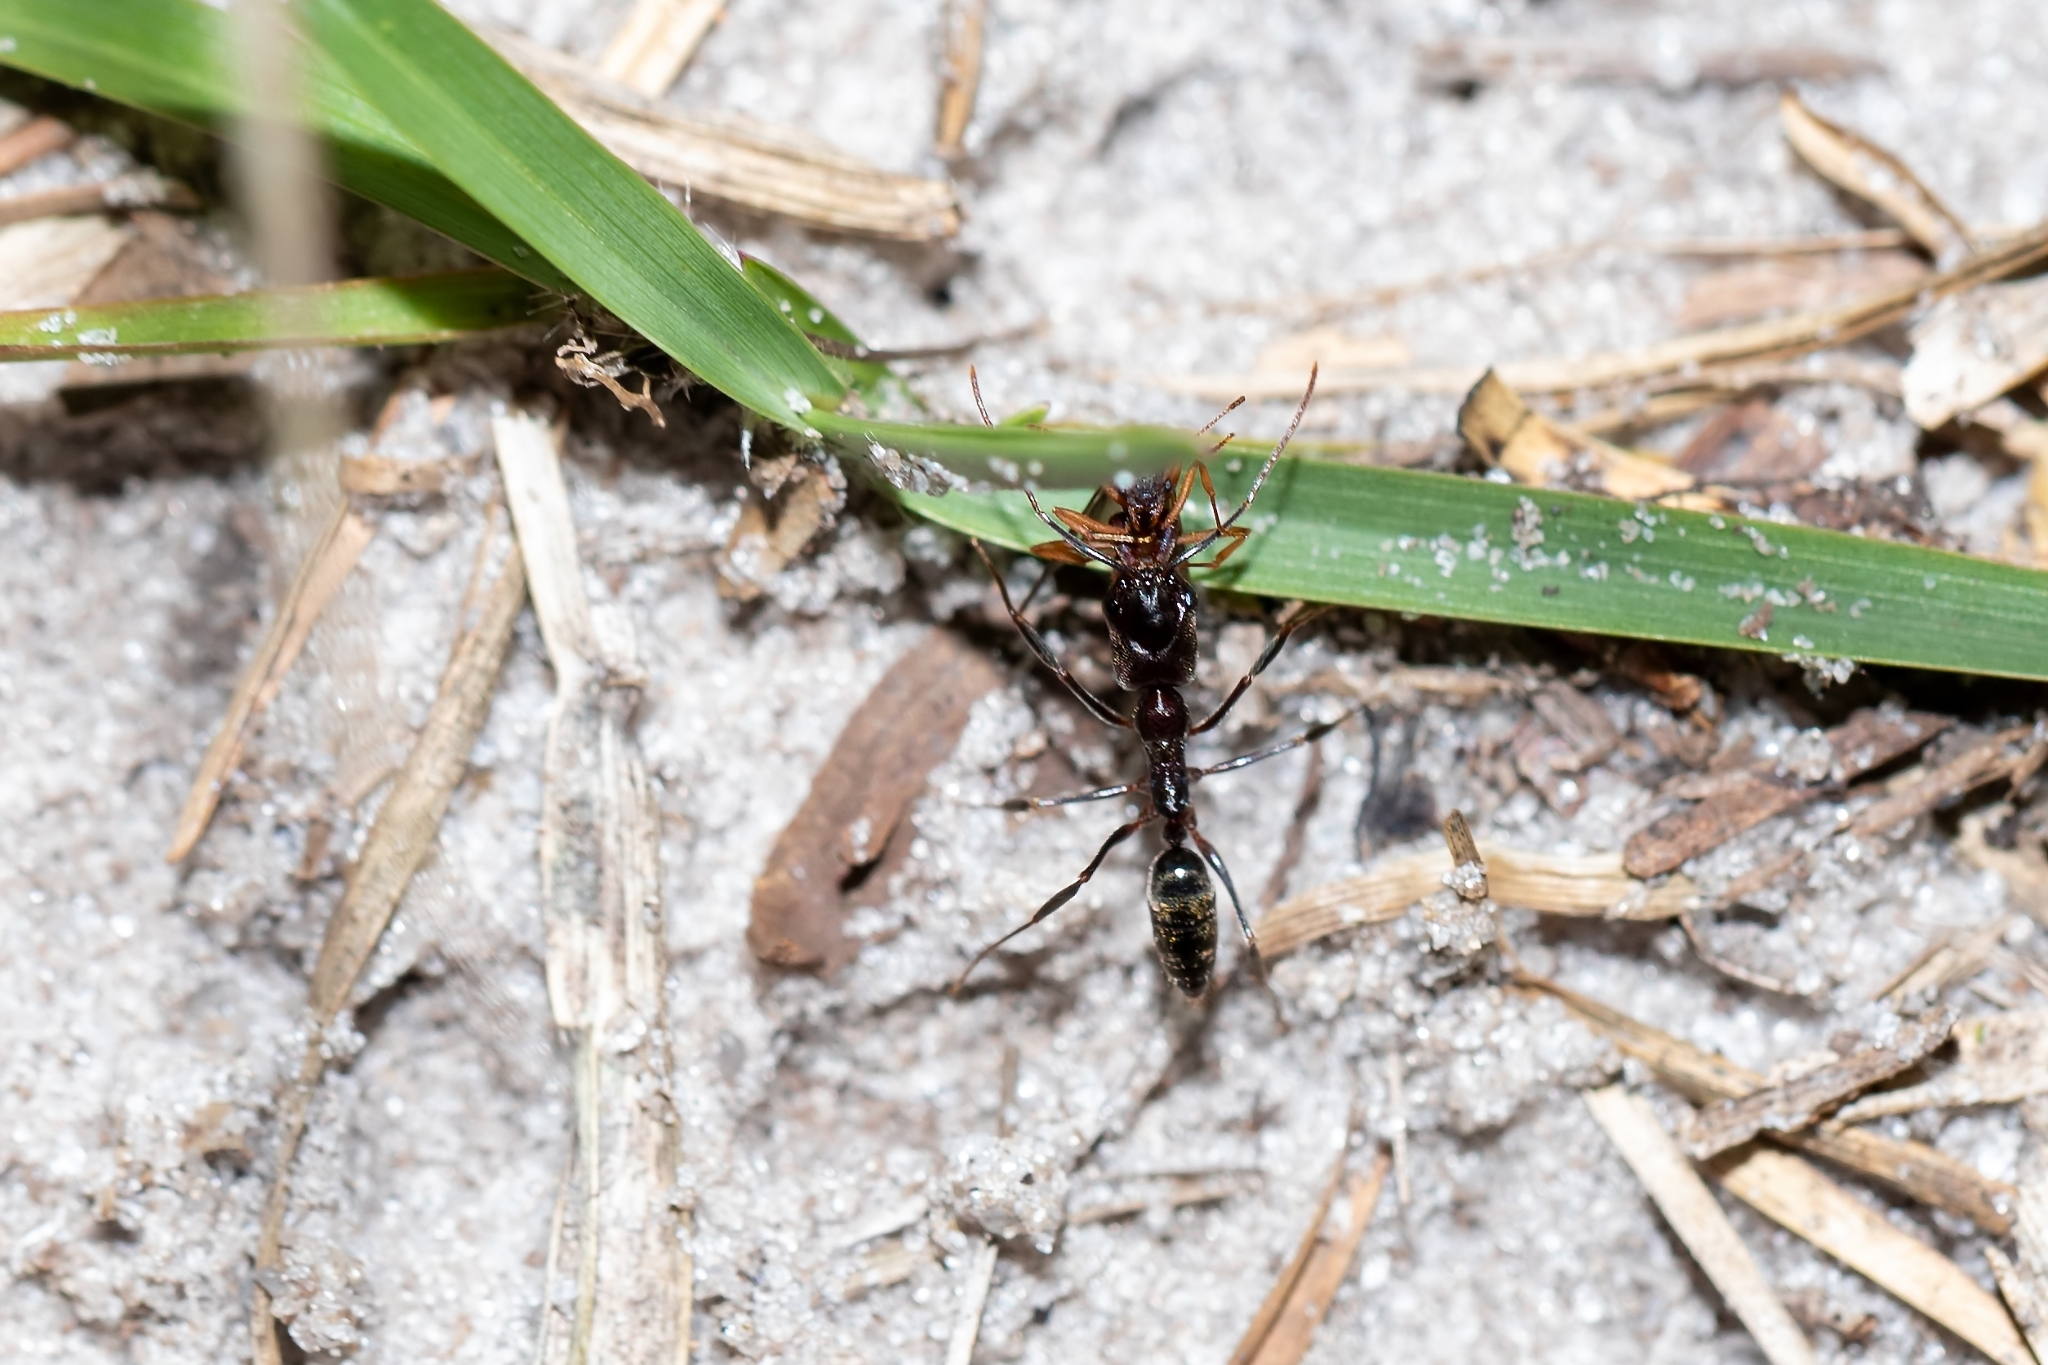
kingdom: Animalia
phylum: Arthropoda
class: Insecta
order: Hymenoptera
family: Formicidae
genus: Odontomachus
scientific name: Odontomachus brunneus
